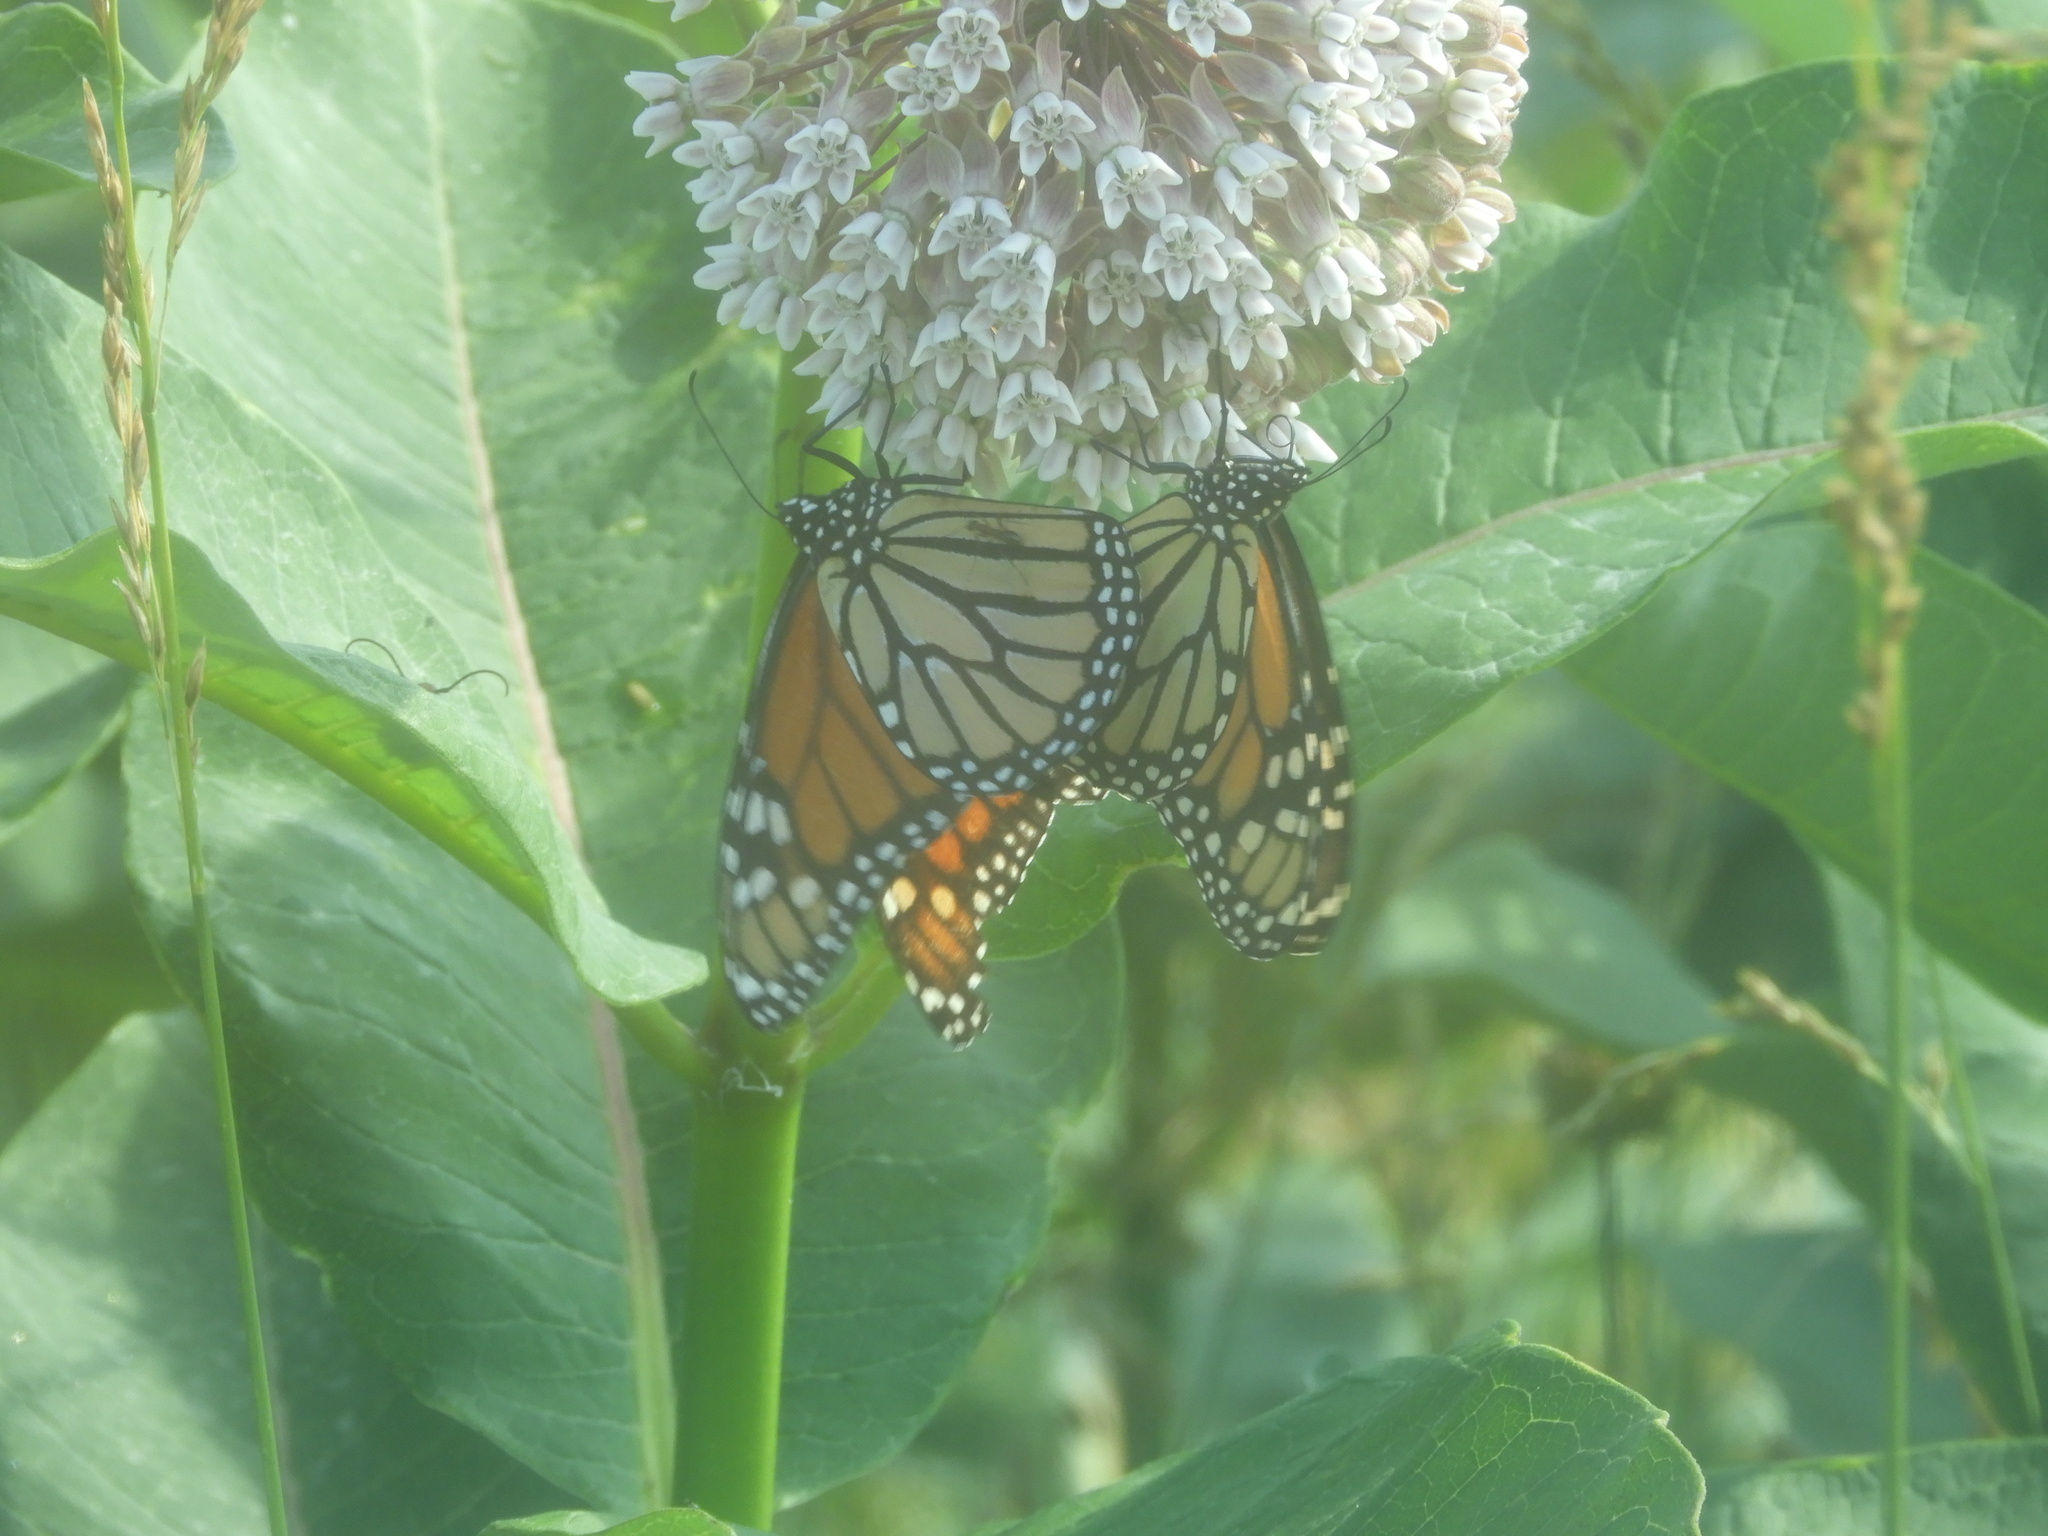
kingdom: Animalia
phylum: Arthropoda
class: Insecta
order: Lepidoptera
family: Nymphalidae
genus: Danaus
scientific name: Danaus plexippus
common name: Monarch
